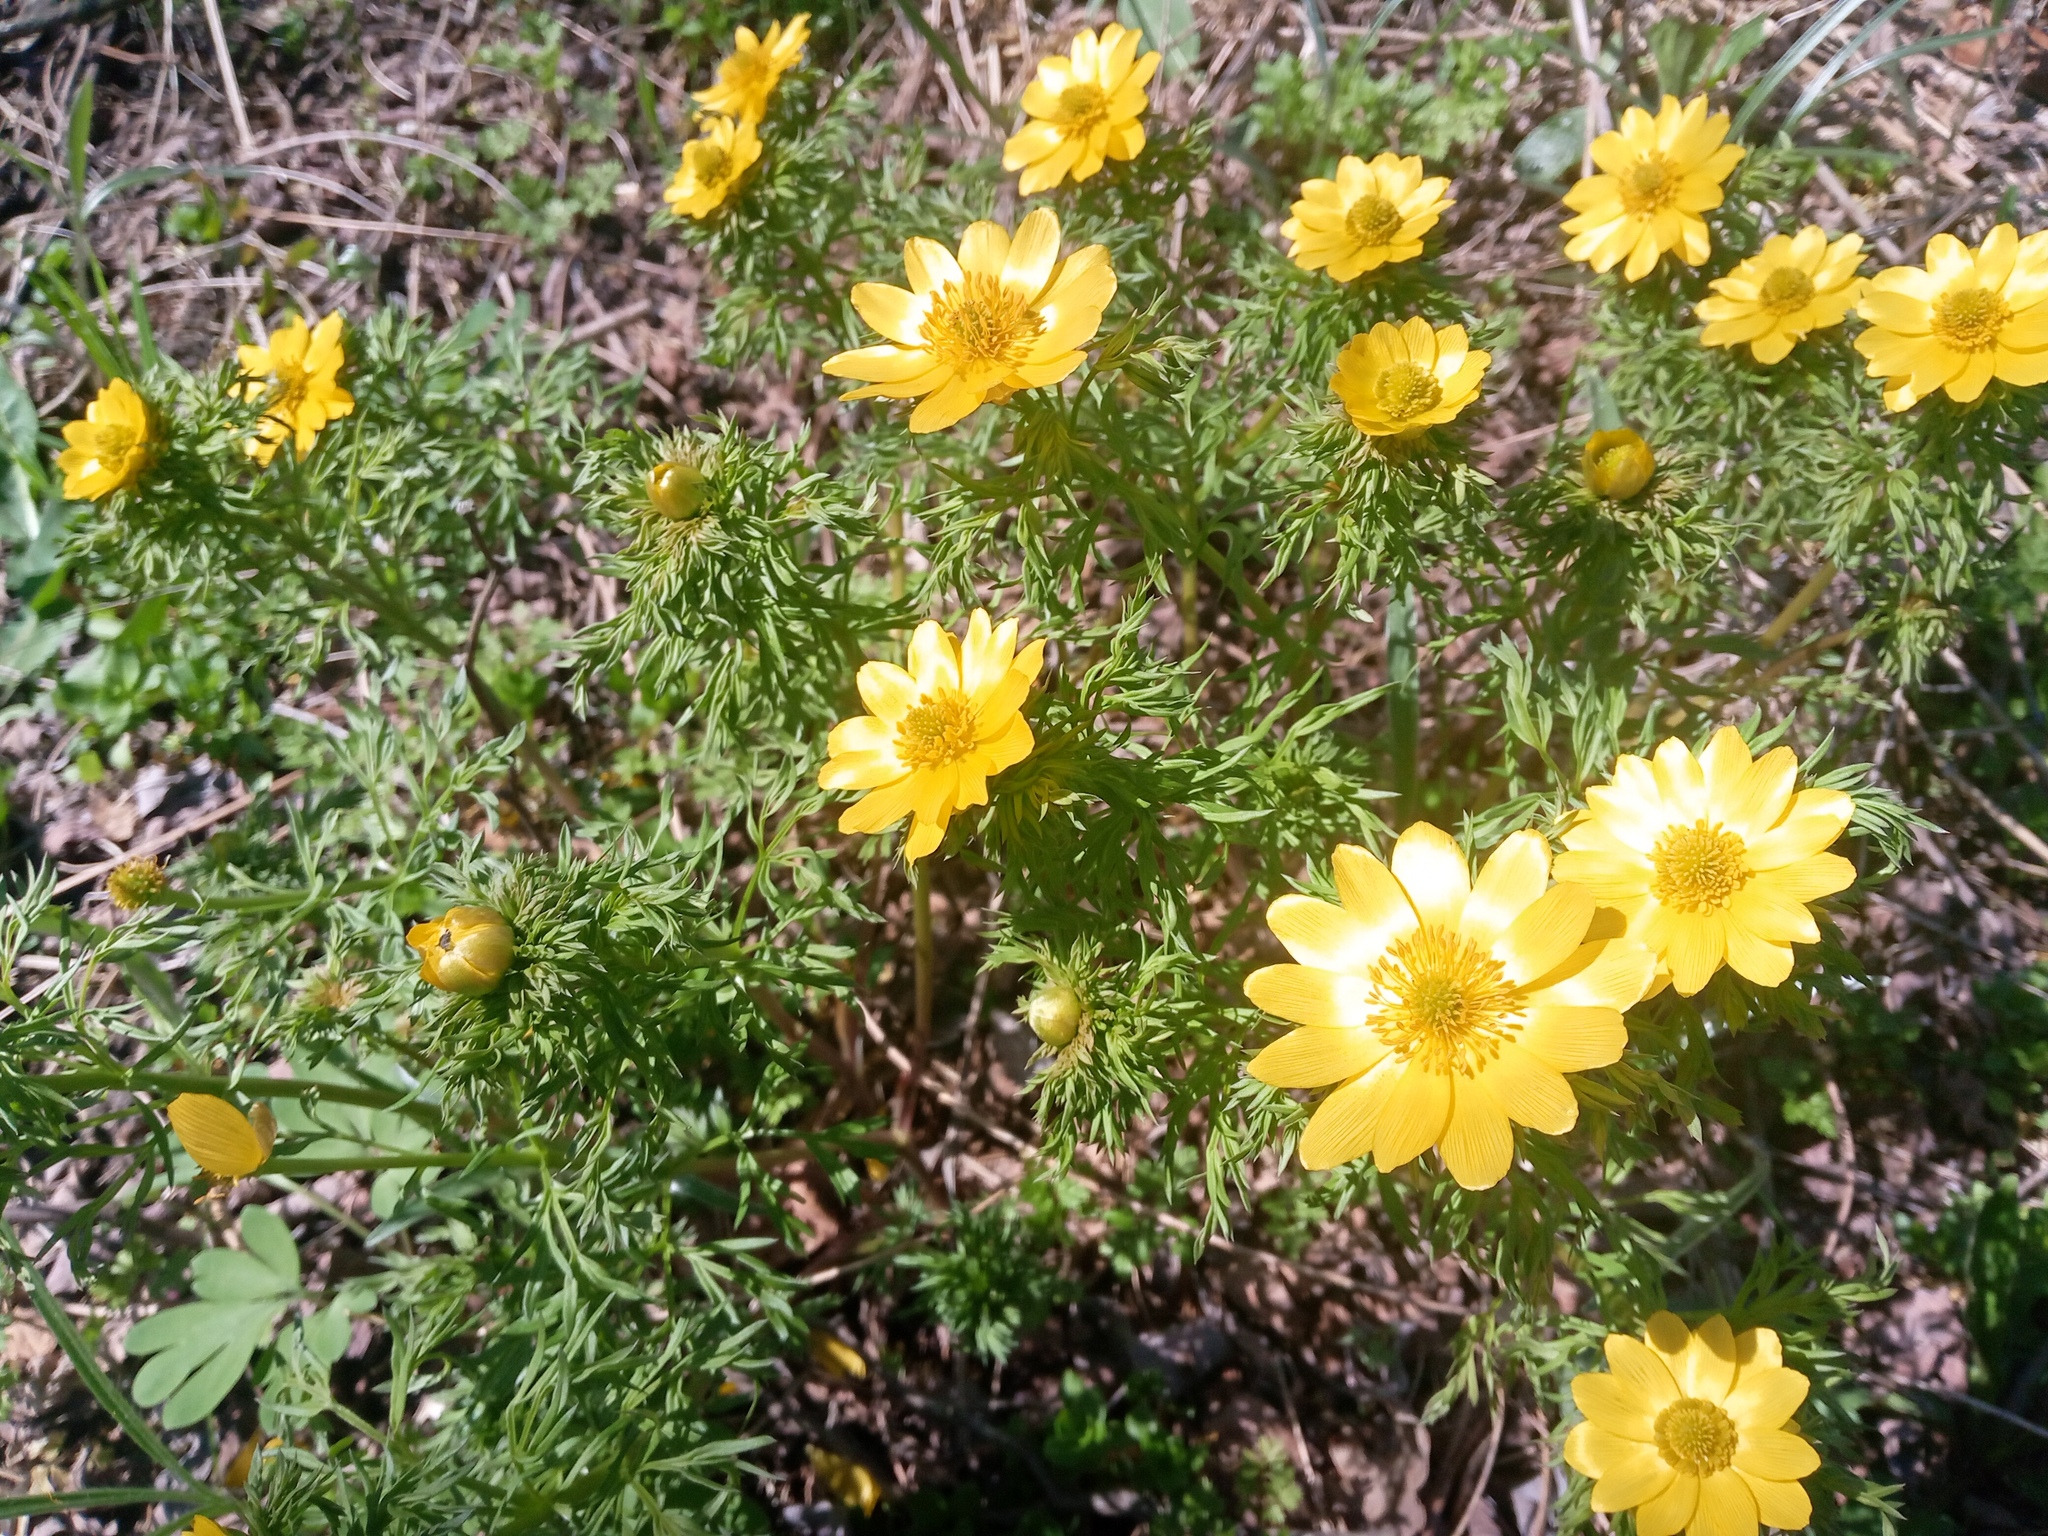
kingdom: Plantae
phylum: Tracheophyta
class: Magnoliopsida
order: Ranunculales
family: Ranunculaceae
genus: Adonis
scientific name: Adonis volgensis
